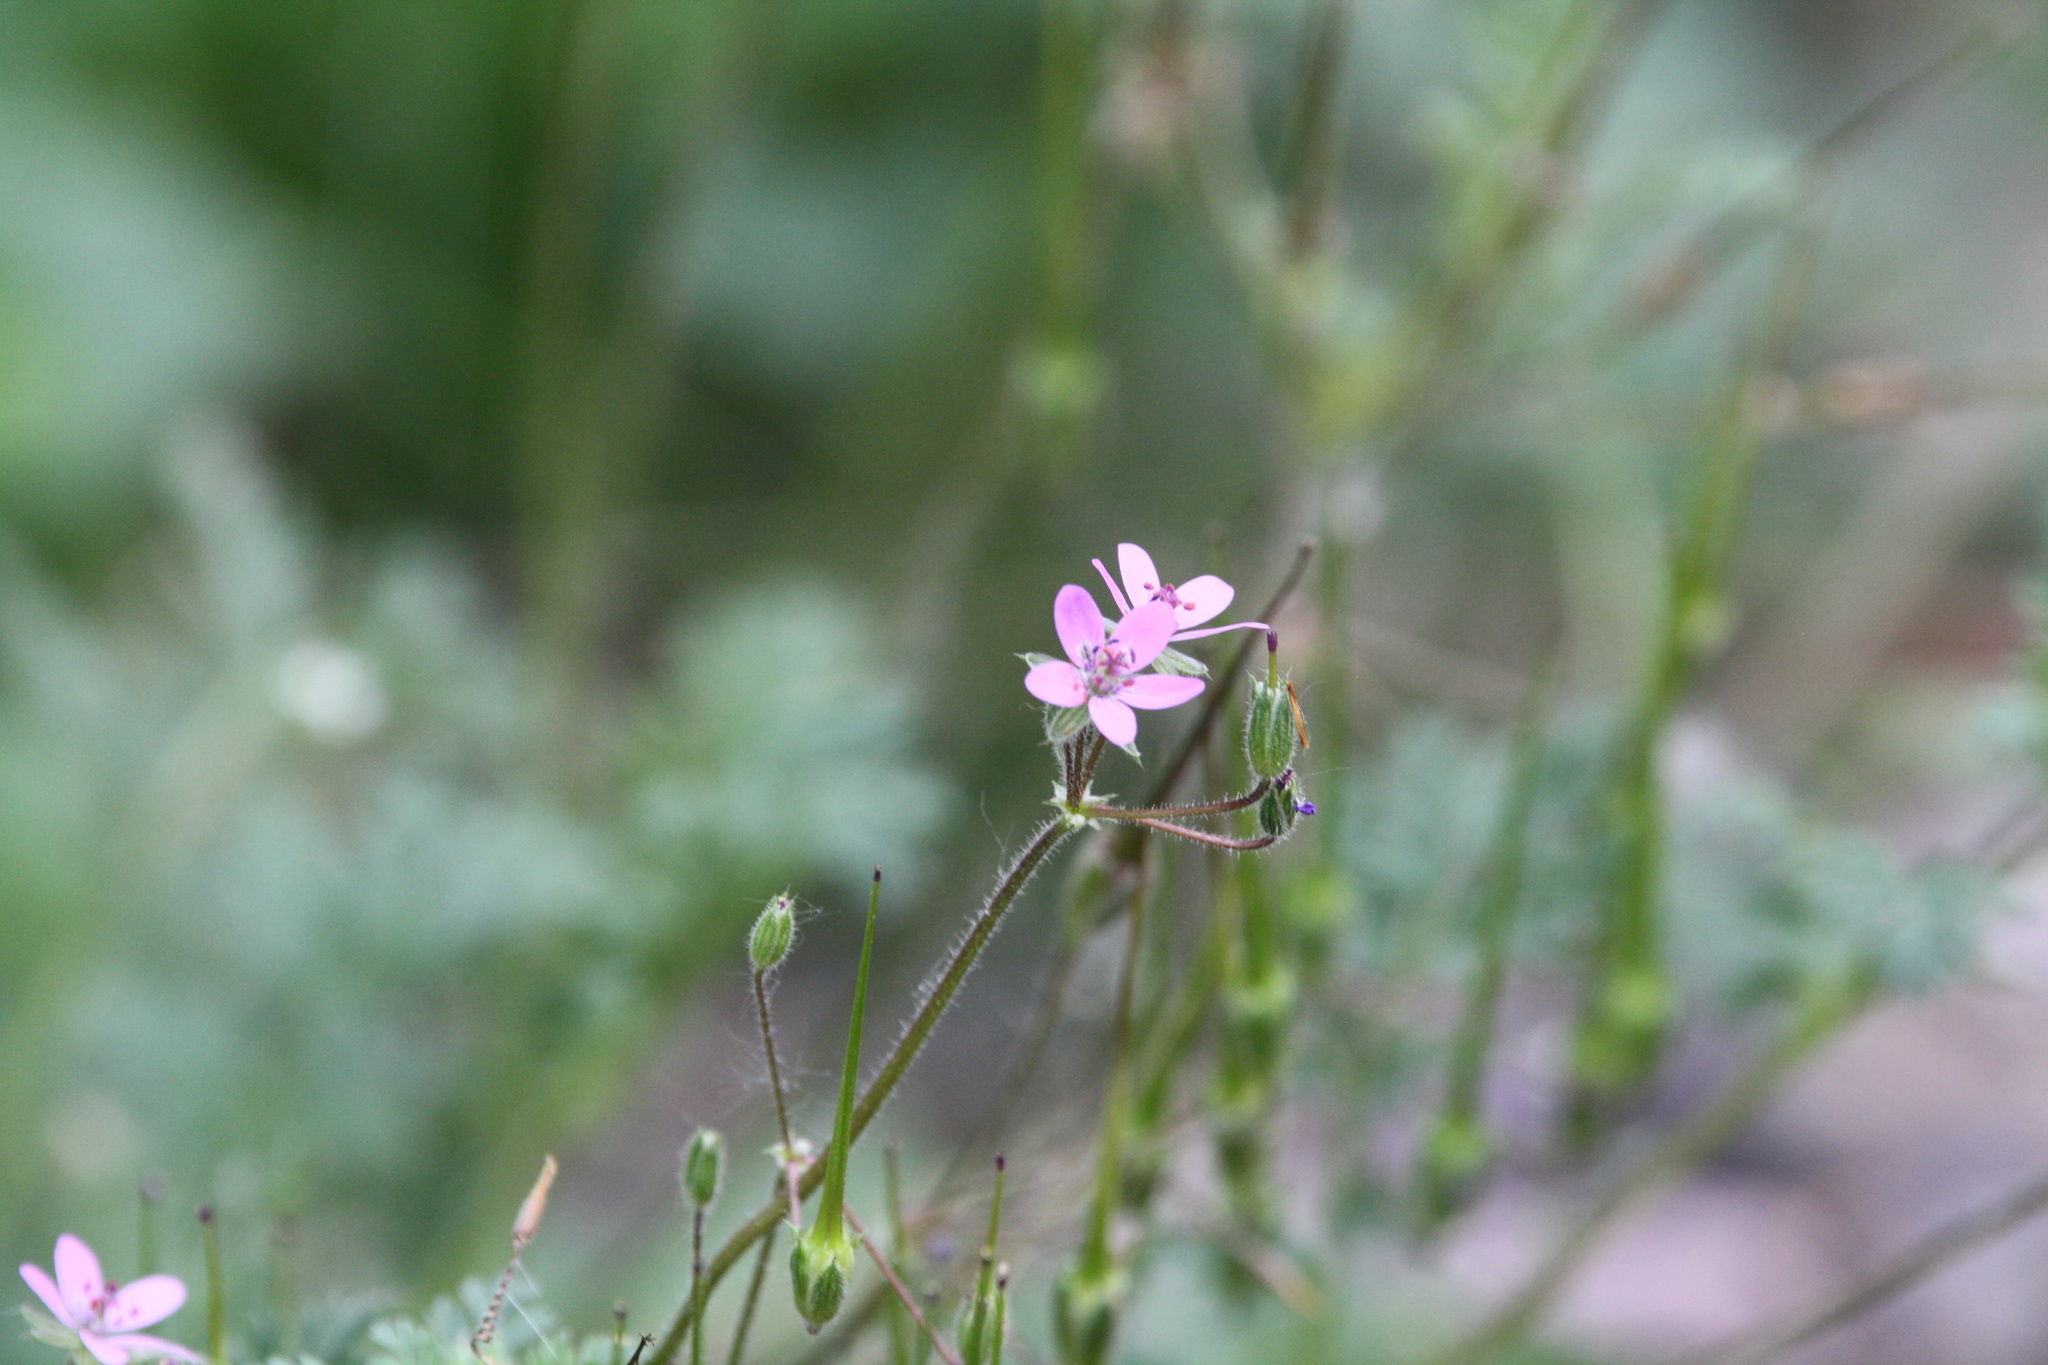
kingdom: Plantae
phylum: Tracheophyta
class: Magnoliopsida
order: Geraniales
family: Geraniaceae
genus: Erodium
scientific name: Erodium cicutarium
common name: Common stork's-bill
